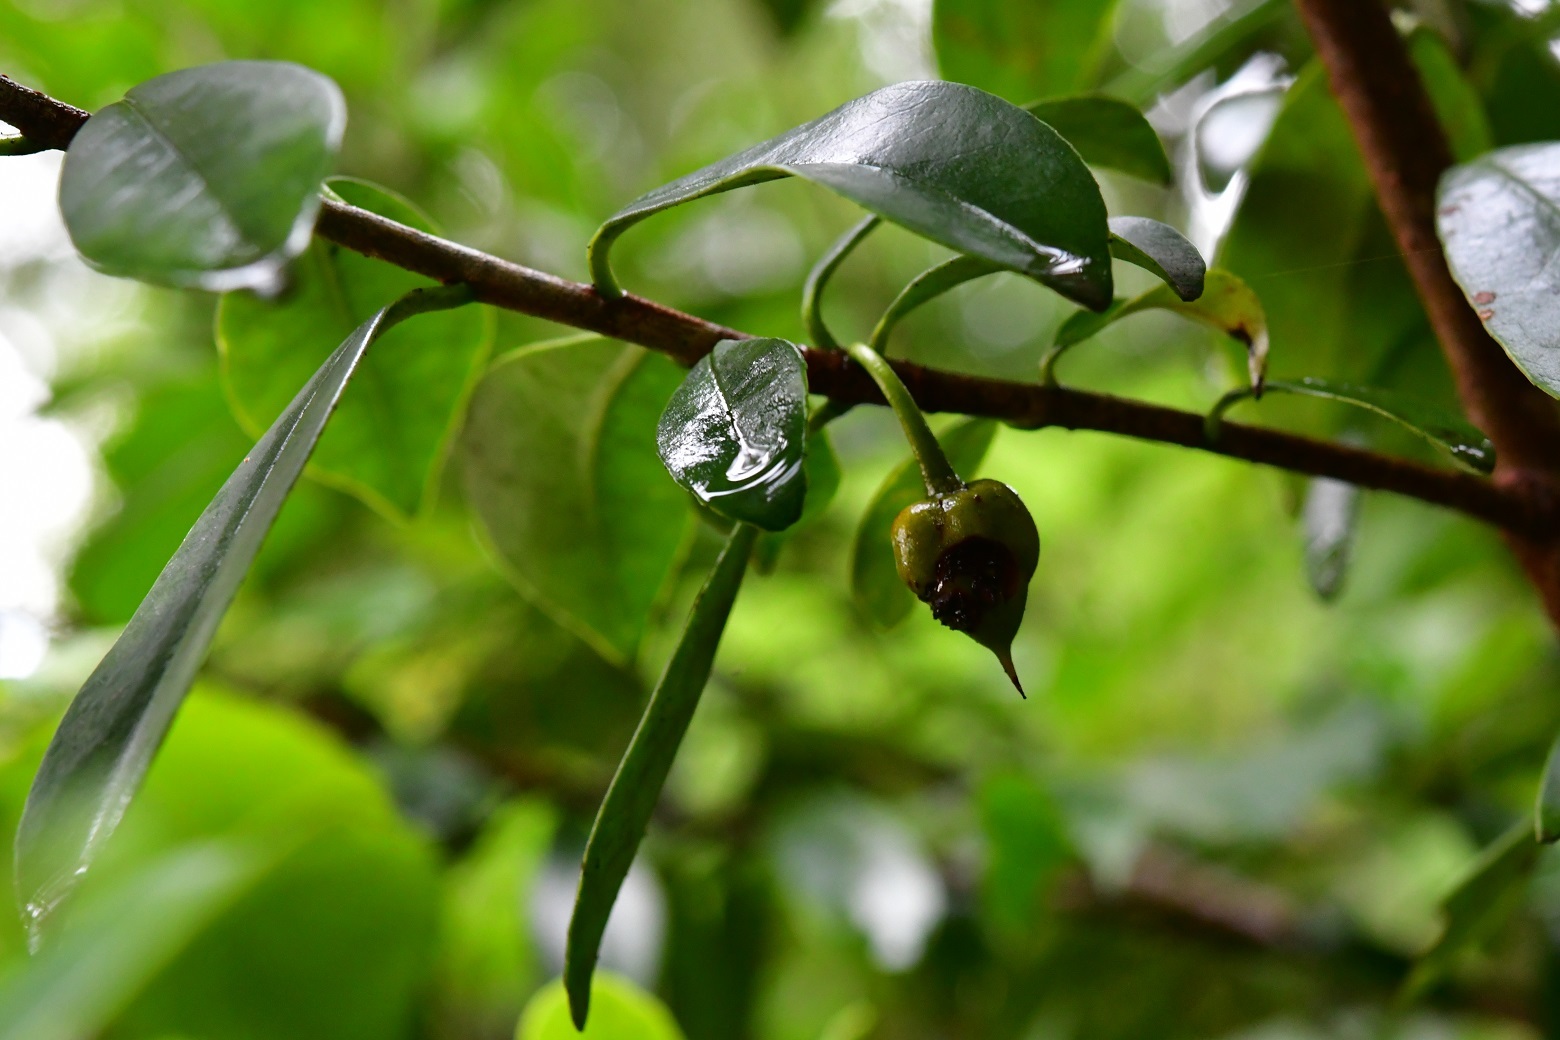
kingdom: Plantae
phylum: Tracheophyta
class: Magnoliopsida
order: Ericales
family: Pentaphylacaceae
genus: Ternstroemia
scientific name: Ternstroemia lineata
